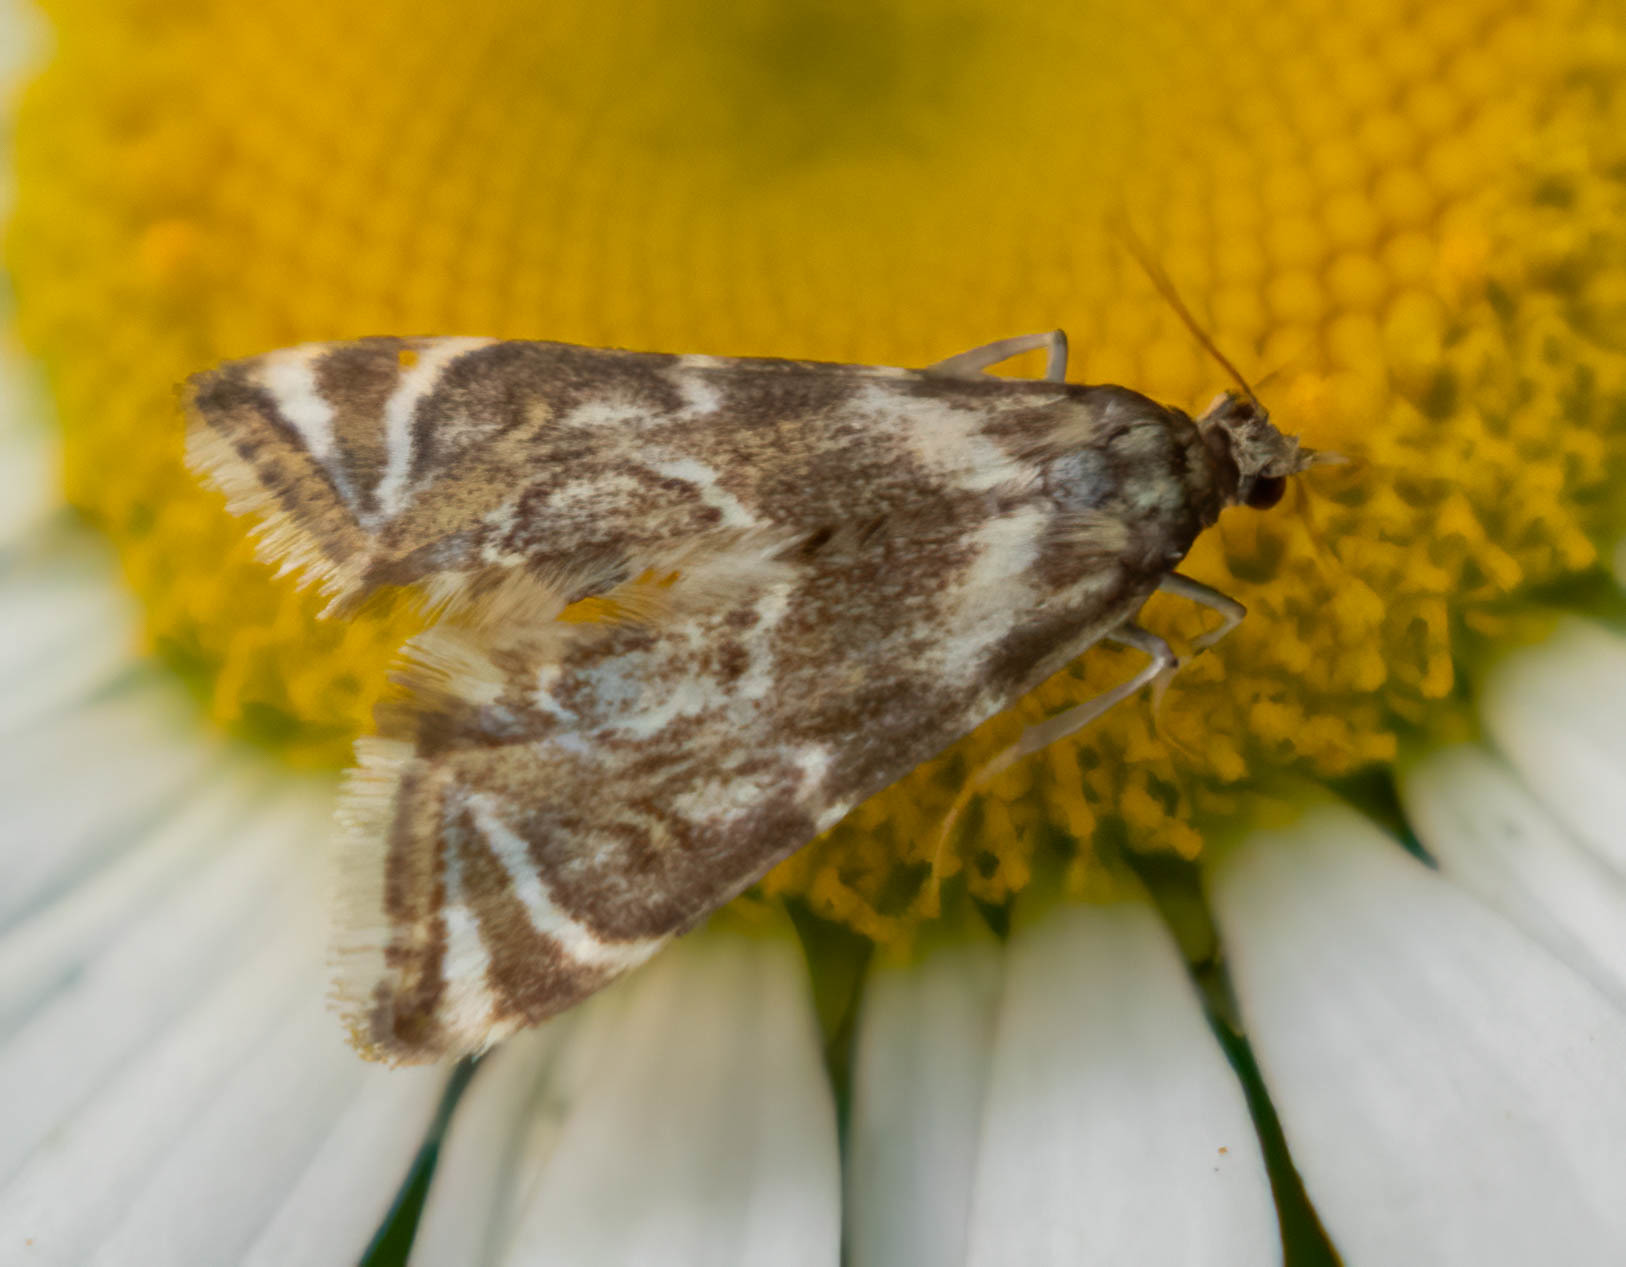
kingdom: Animalia
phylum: Arthropoda
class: Insecta
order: Lepidoptera
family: Crambidae
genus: Petrophila
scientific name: Petrophila canadensis
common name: Canadian petrophila
